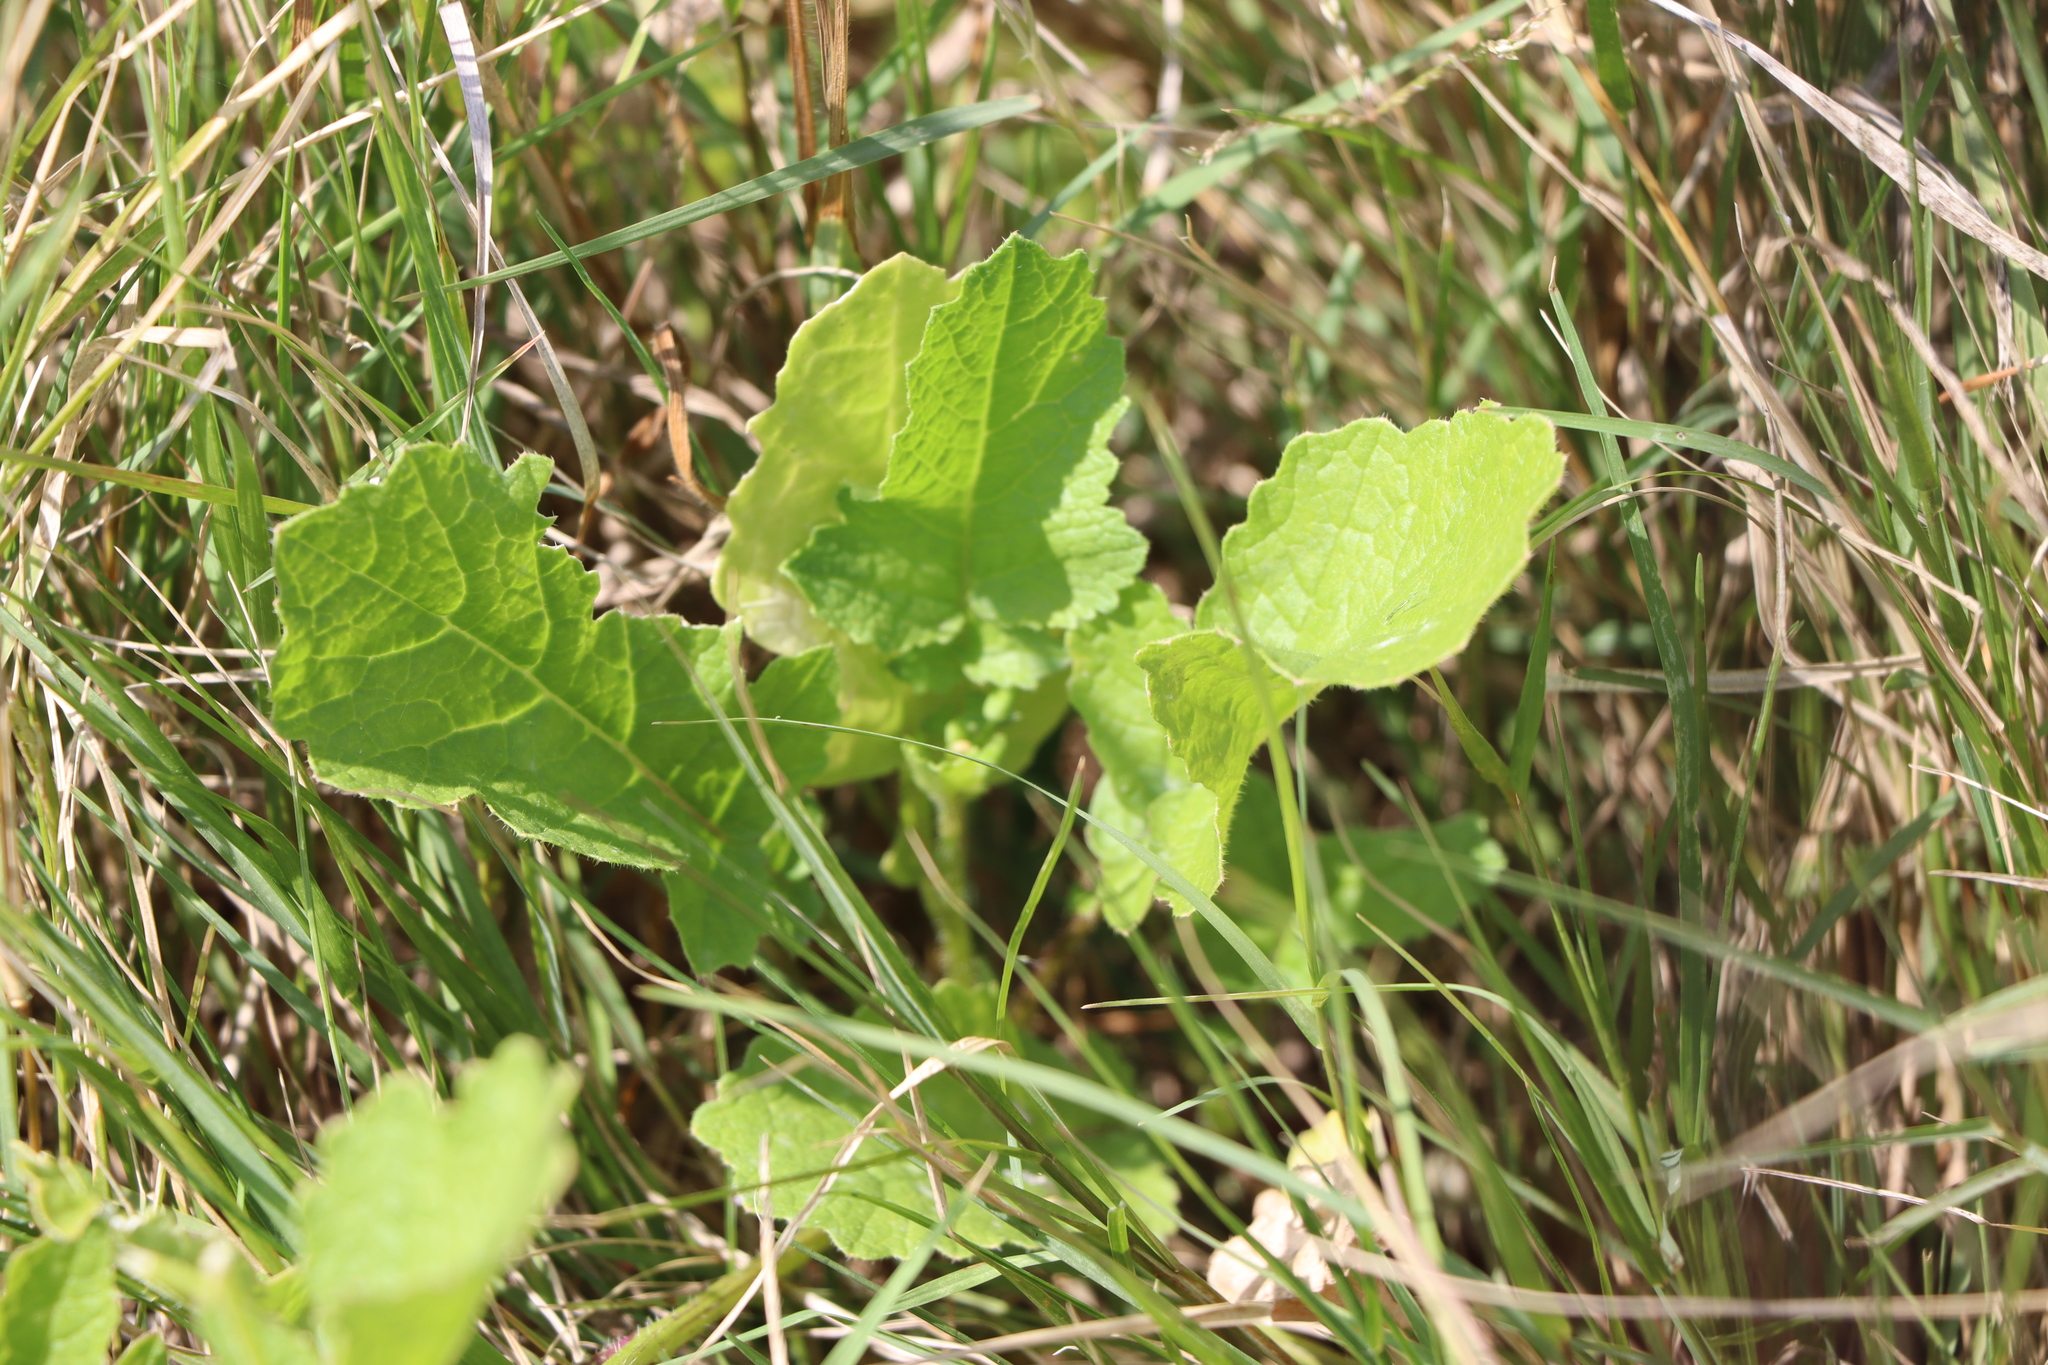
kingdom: Plantae
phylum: Tracheophyta
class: Magnoliopsida
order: Brassicales
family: Brassicaceae
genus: Raphanus
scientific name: Raphanus sativus
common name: Cultivated radish
